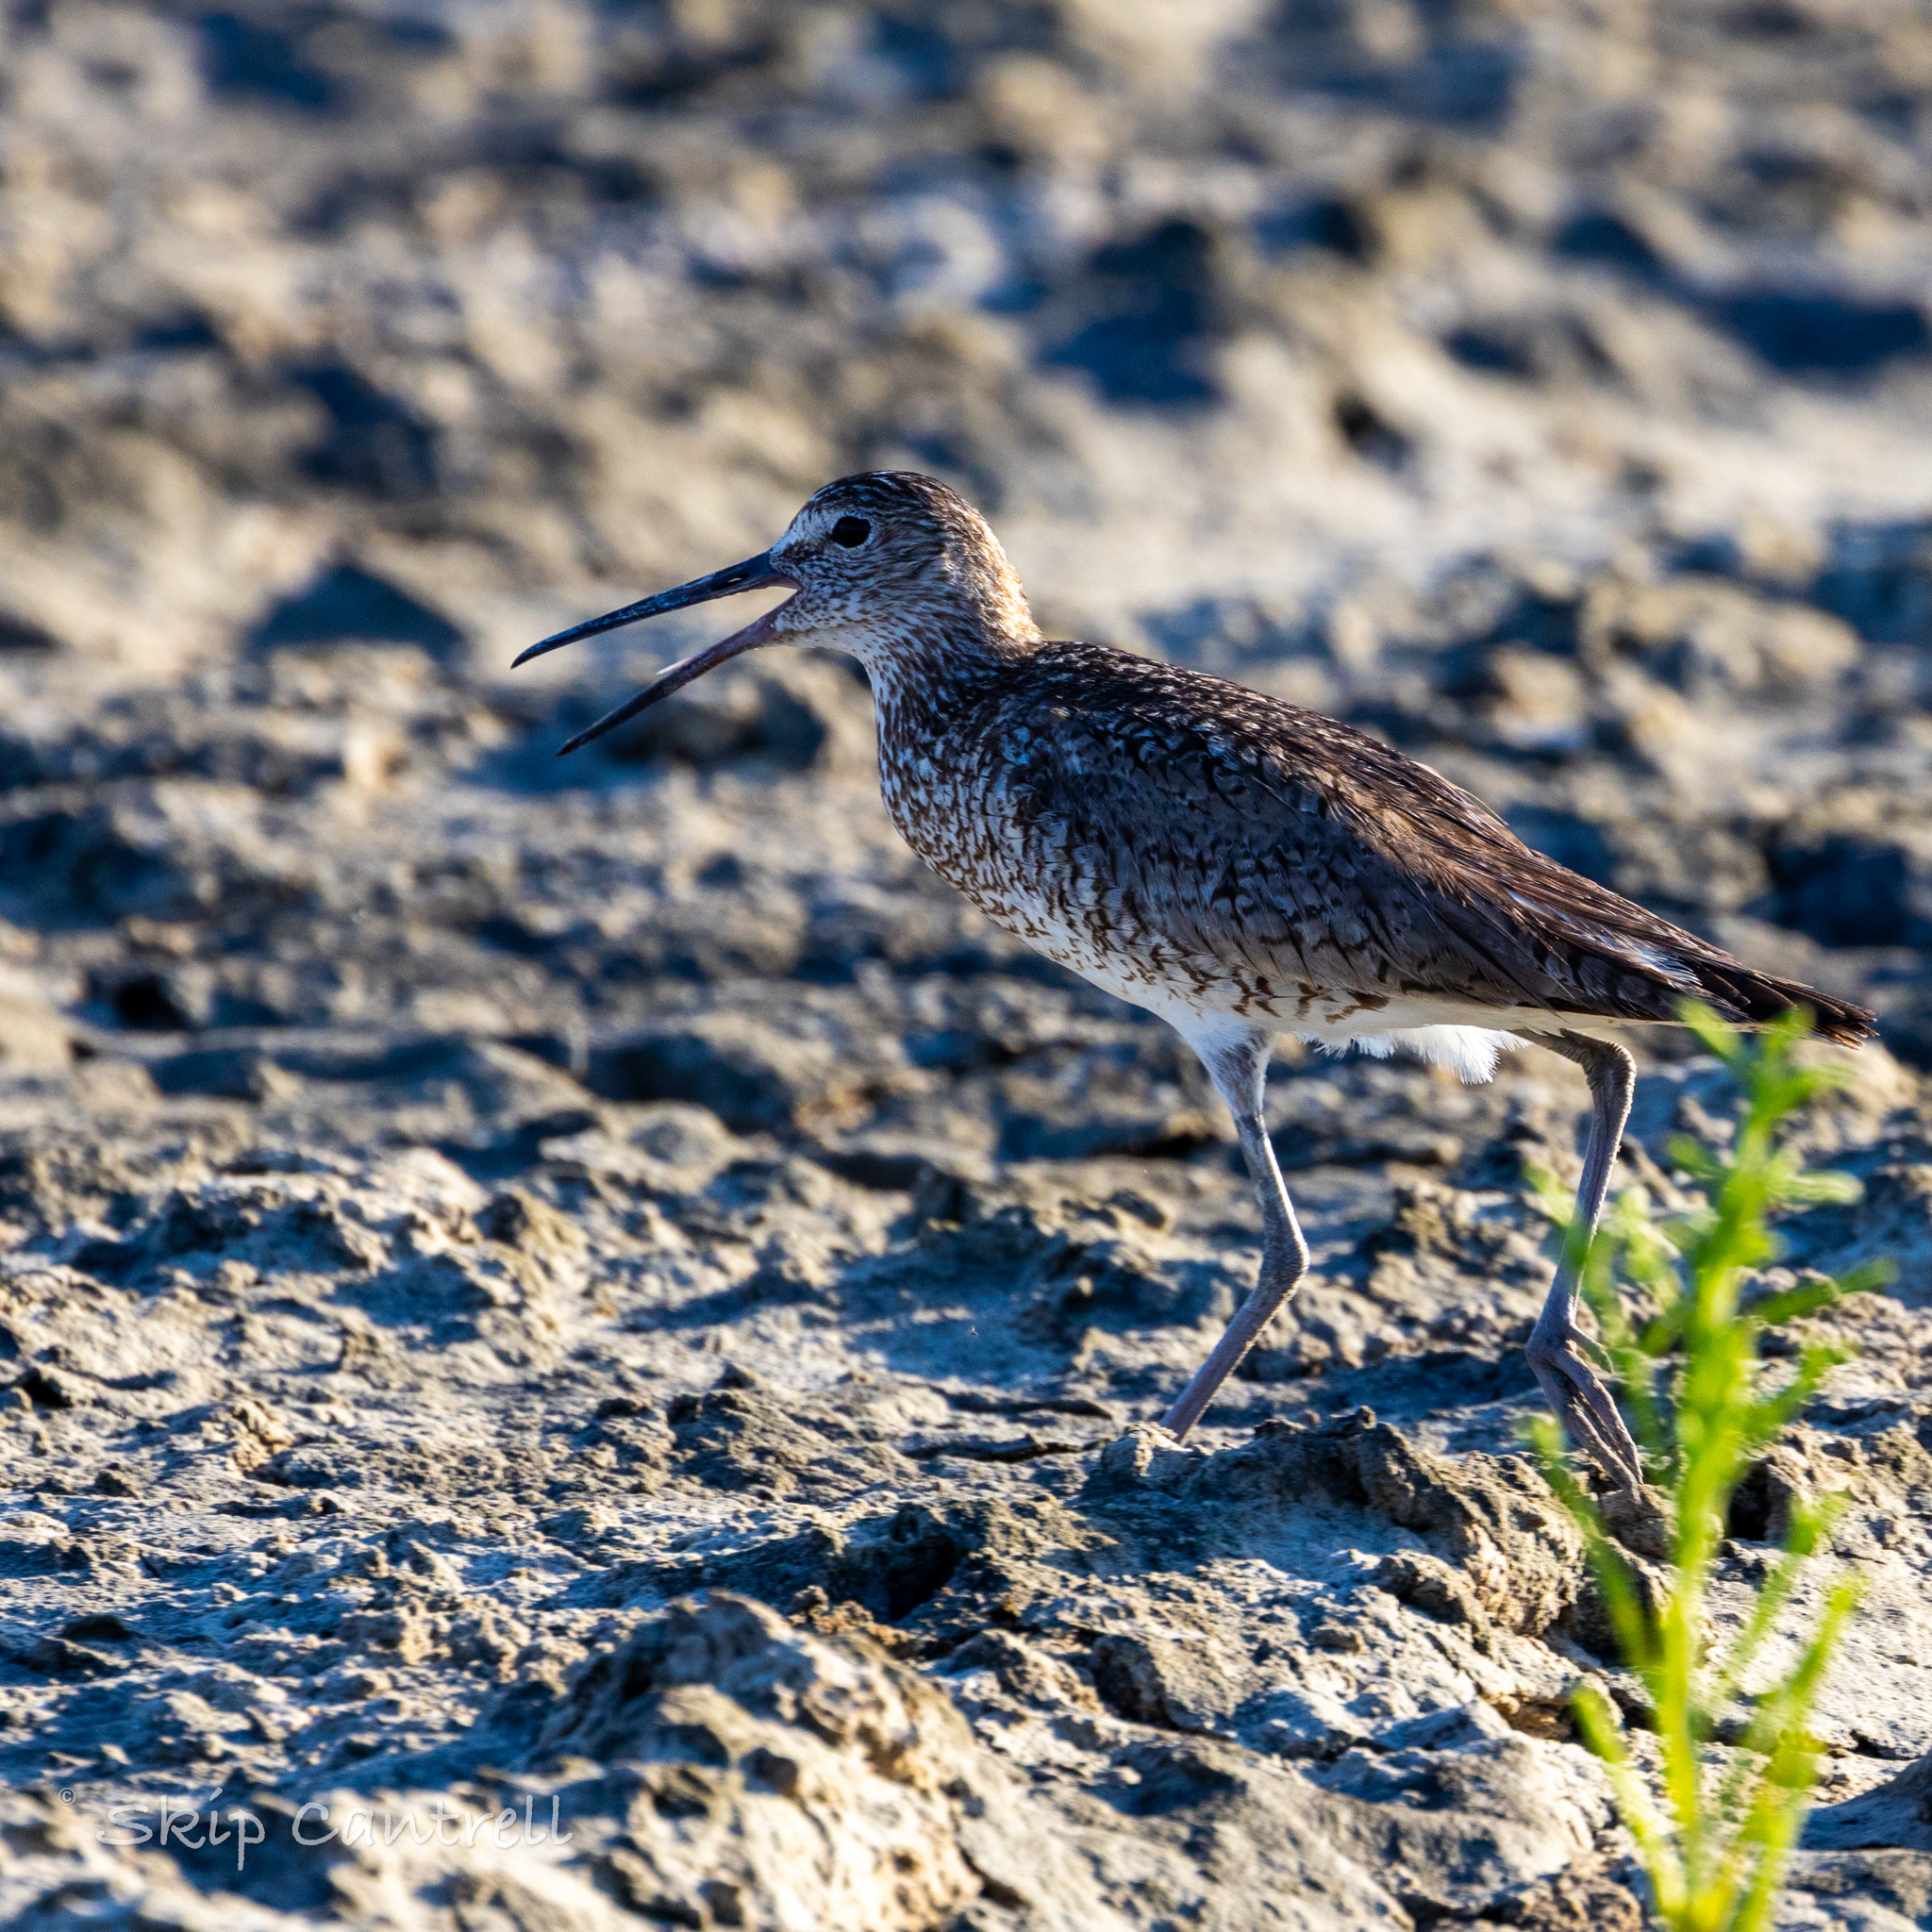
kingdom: Animalia
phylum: Chordata
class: Aves
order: Charadriiformes
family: Scolopacidae
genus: Tringa
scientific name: Tringa semipalmata
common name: Willet
